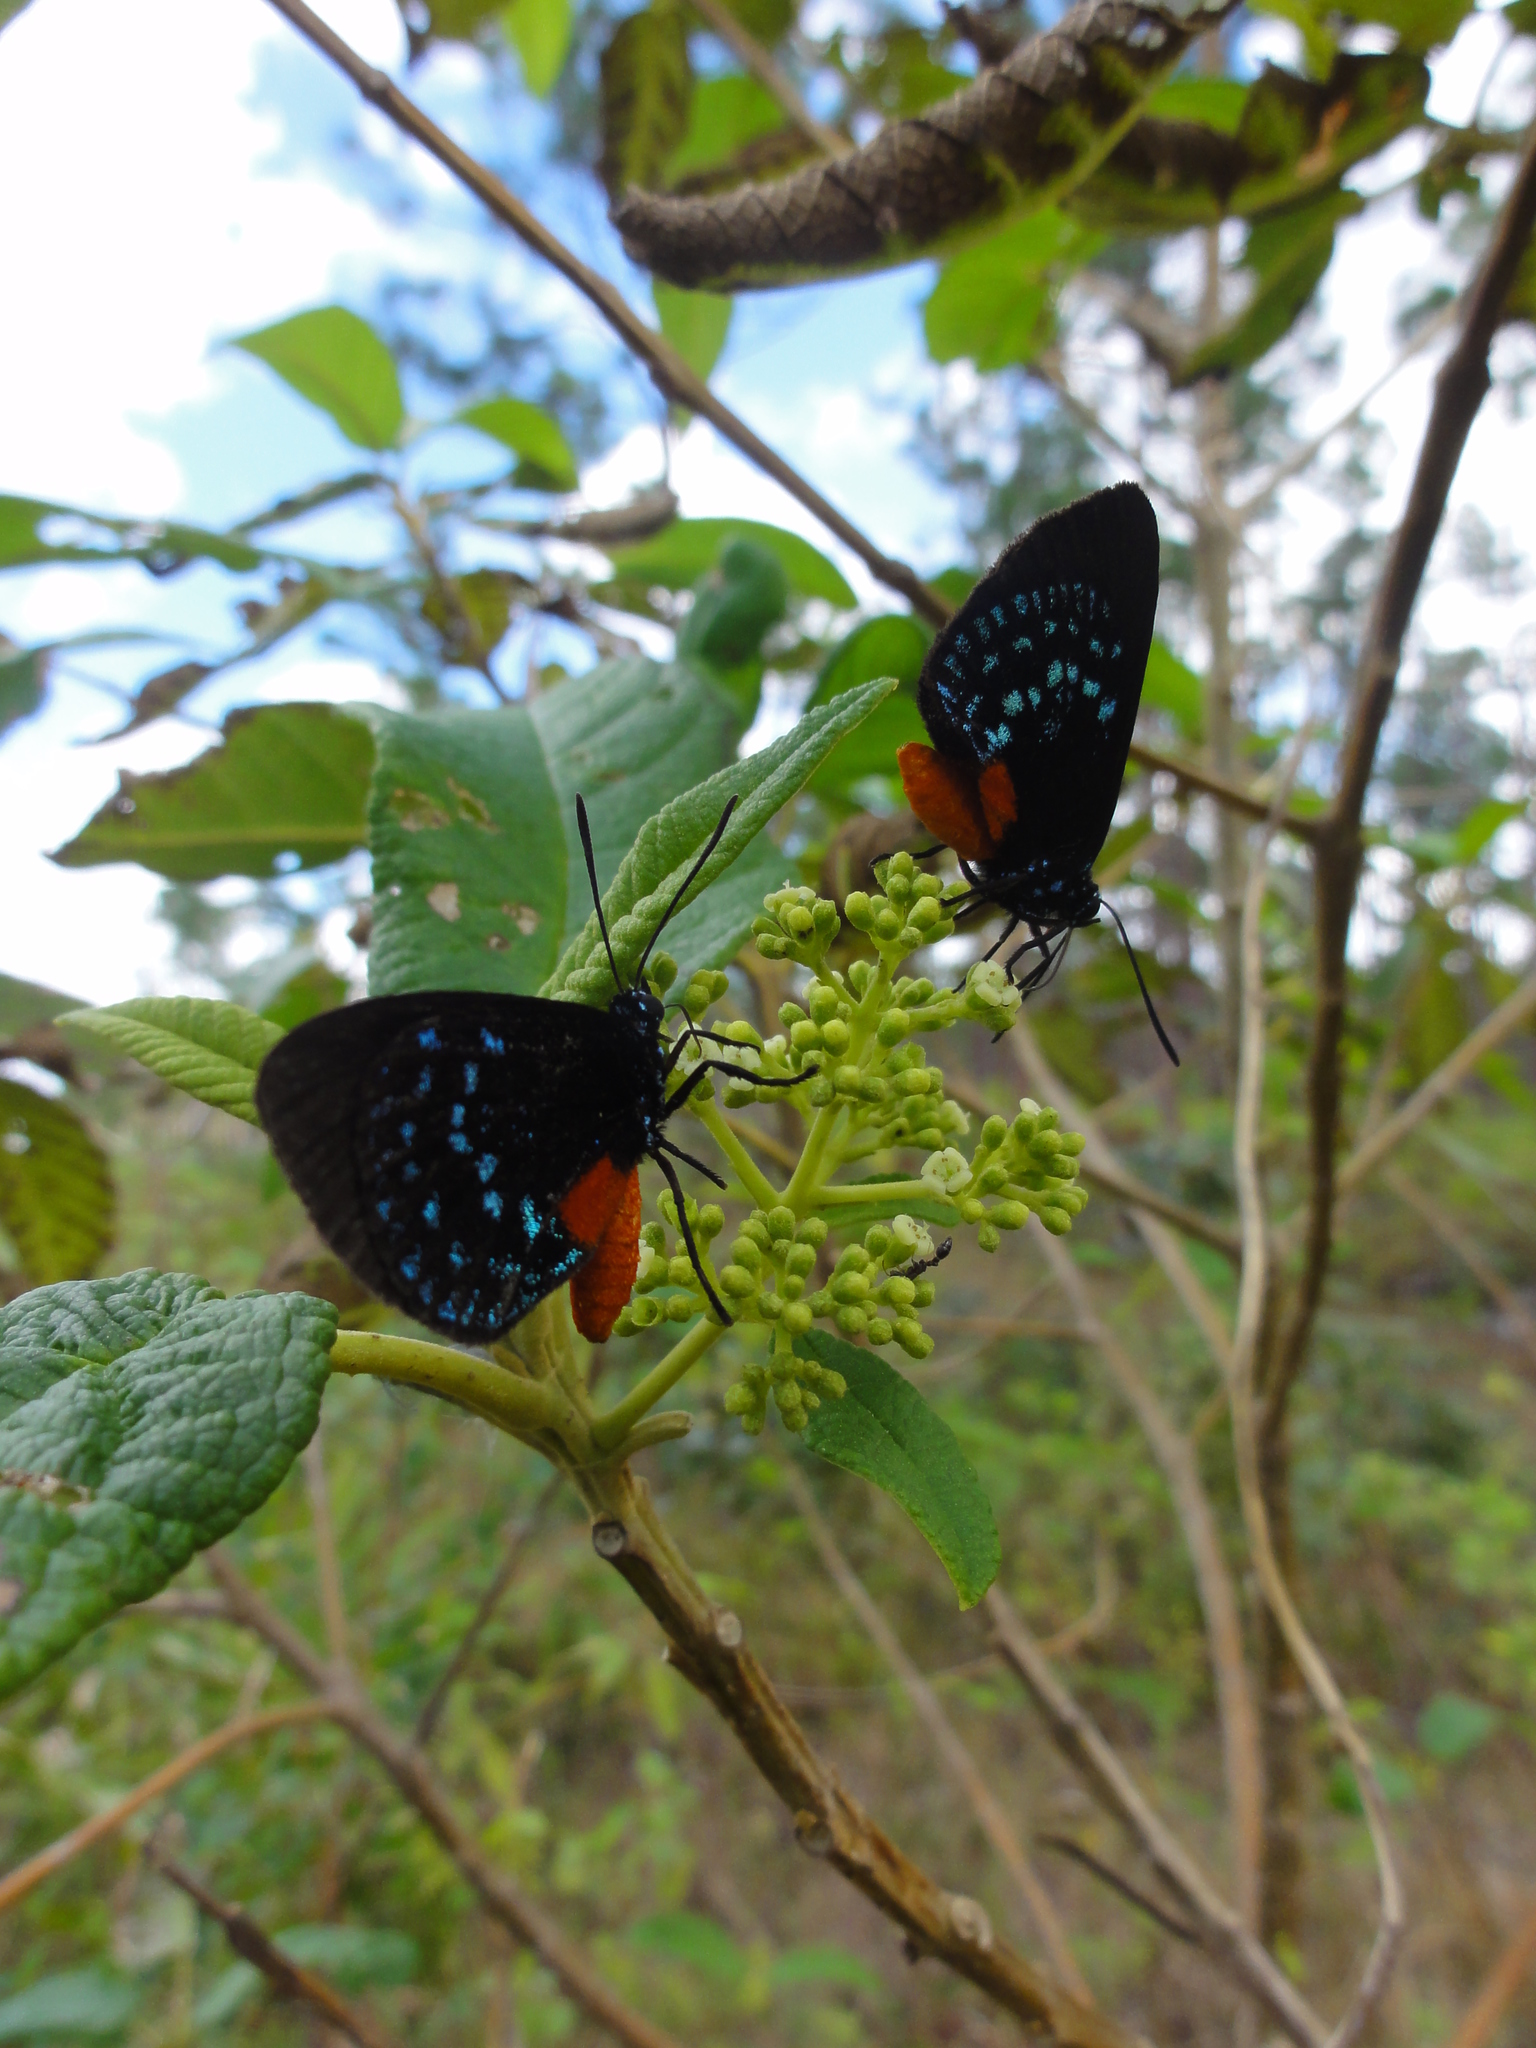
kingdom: Animalia
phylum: Arthropoda
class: Insecta
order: Lepidoptera
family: Lycaenidae
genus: Eumaeus
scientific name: Eumaeus atala
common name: Atala
